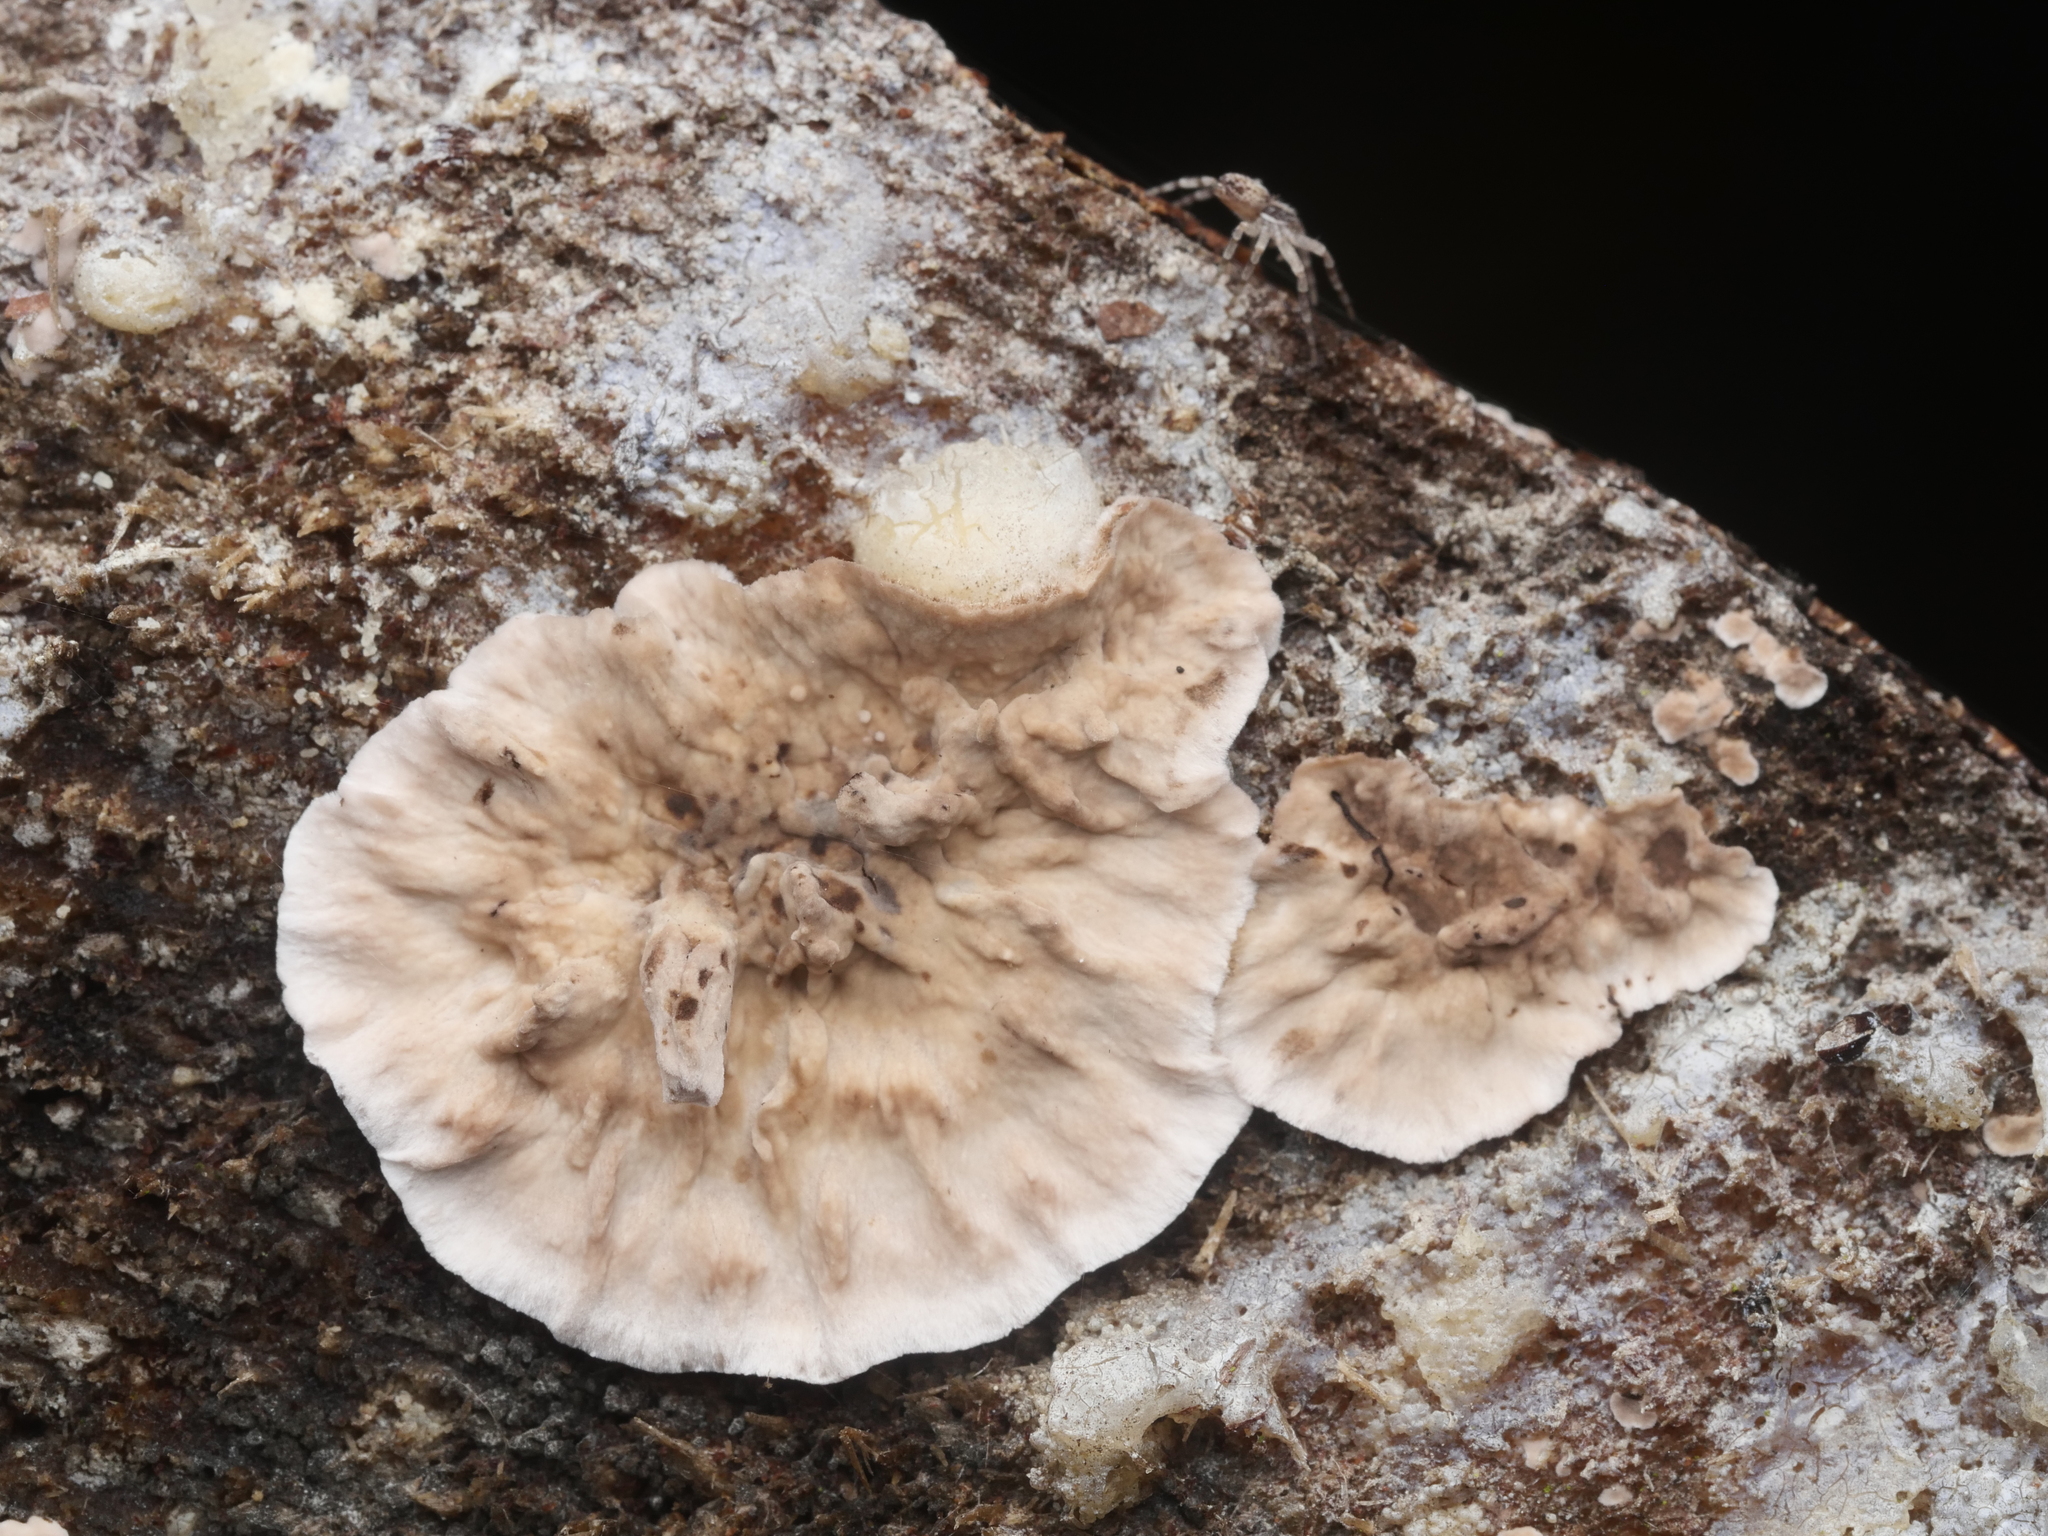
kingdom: Fungi
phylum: Basidiomycota
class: Agaricomycetes
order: Russulales
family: Stereaceae
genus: Stereum
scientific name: Stereum sanguinolentum
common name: Bleeding conifer crust
